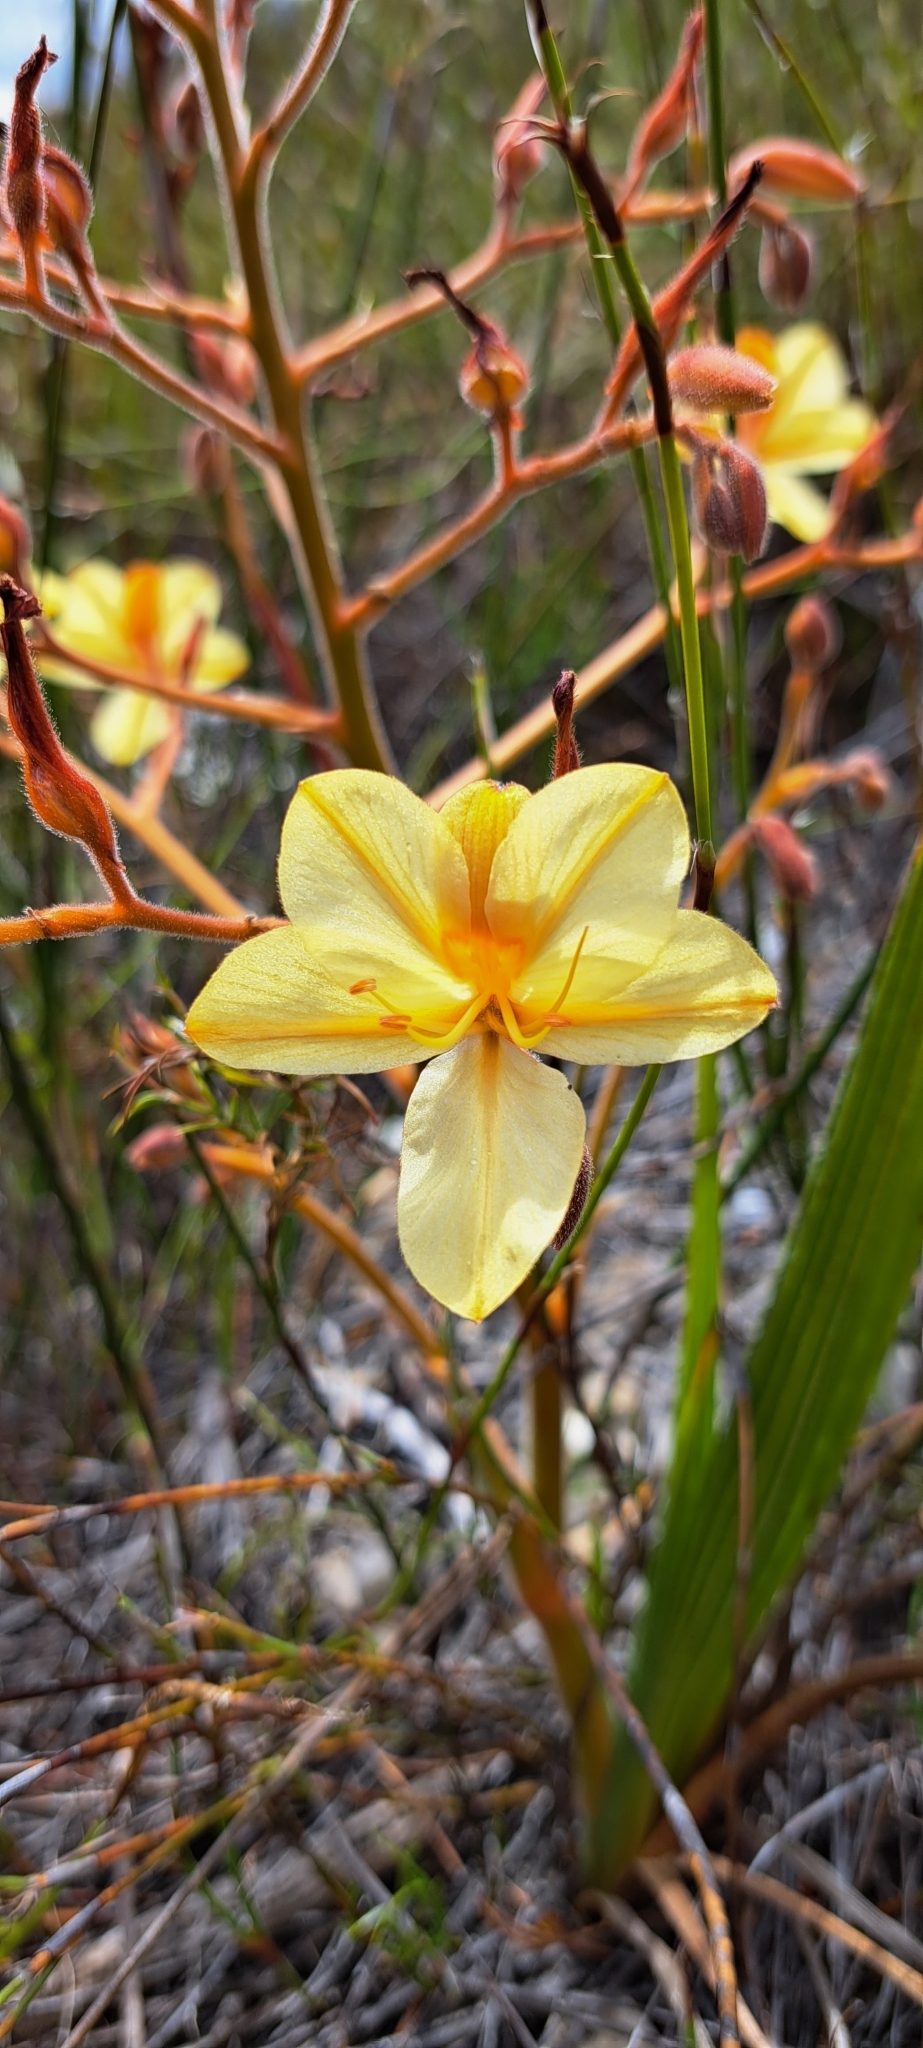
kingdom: Plantae
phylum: Tracheophyta
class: Liliopsida
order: Commelinales
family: Haemodoraceae
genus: Wachendorfia
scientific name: Wachendorfia paniculata
